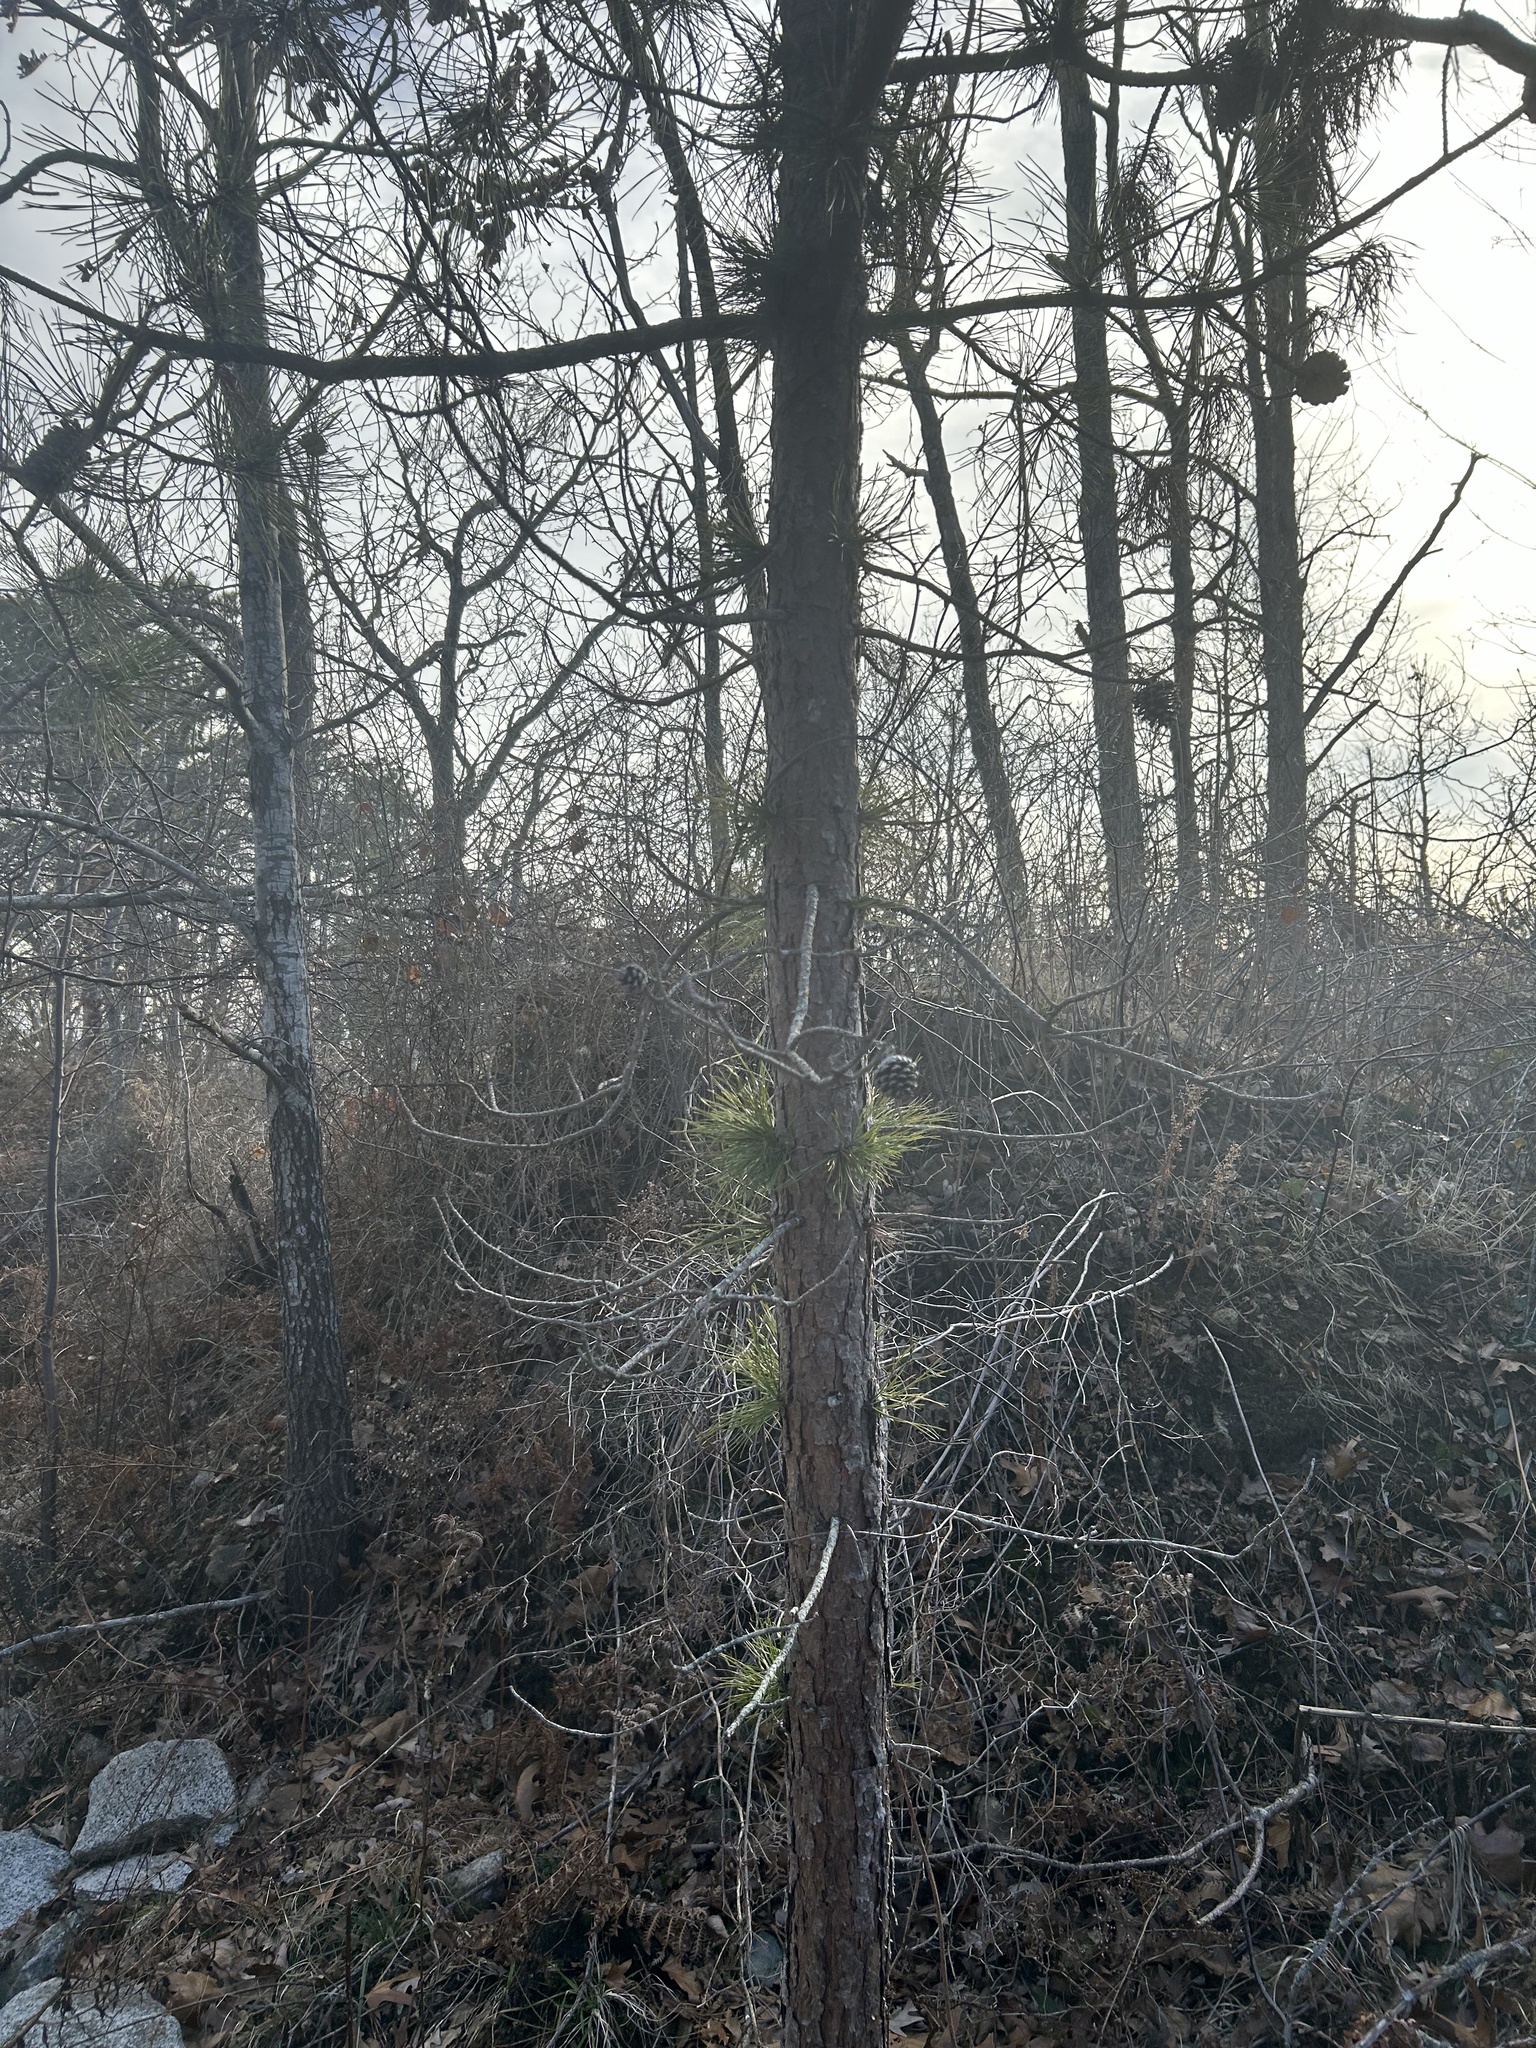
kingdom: Plantae
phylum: Tracheophyta
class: Pinopsida
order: Pinales
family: Pinaceae
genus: Pinus
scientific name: Pinus rigida
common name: Pitch pine
